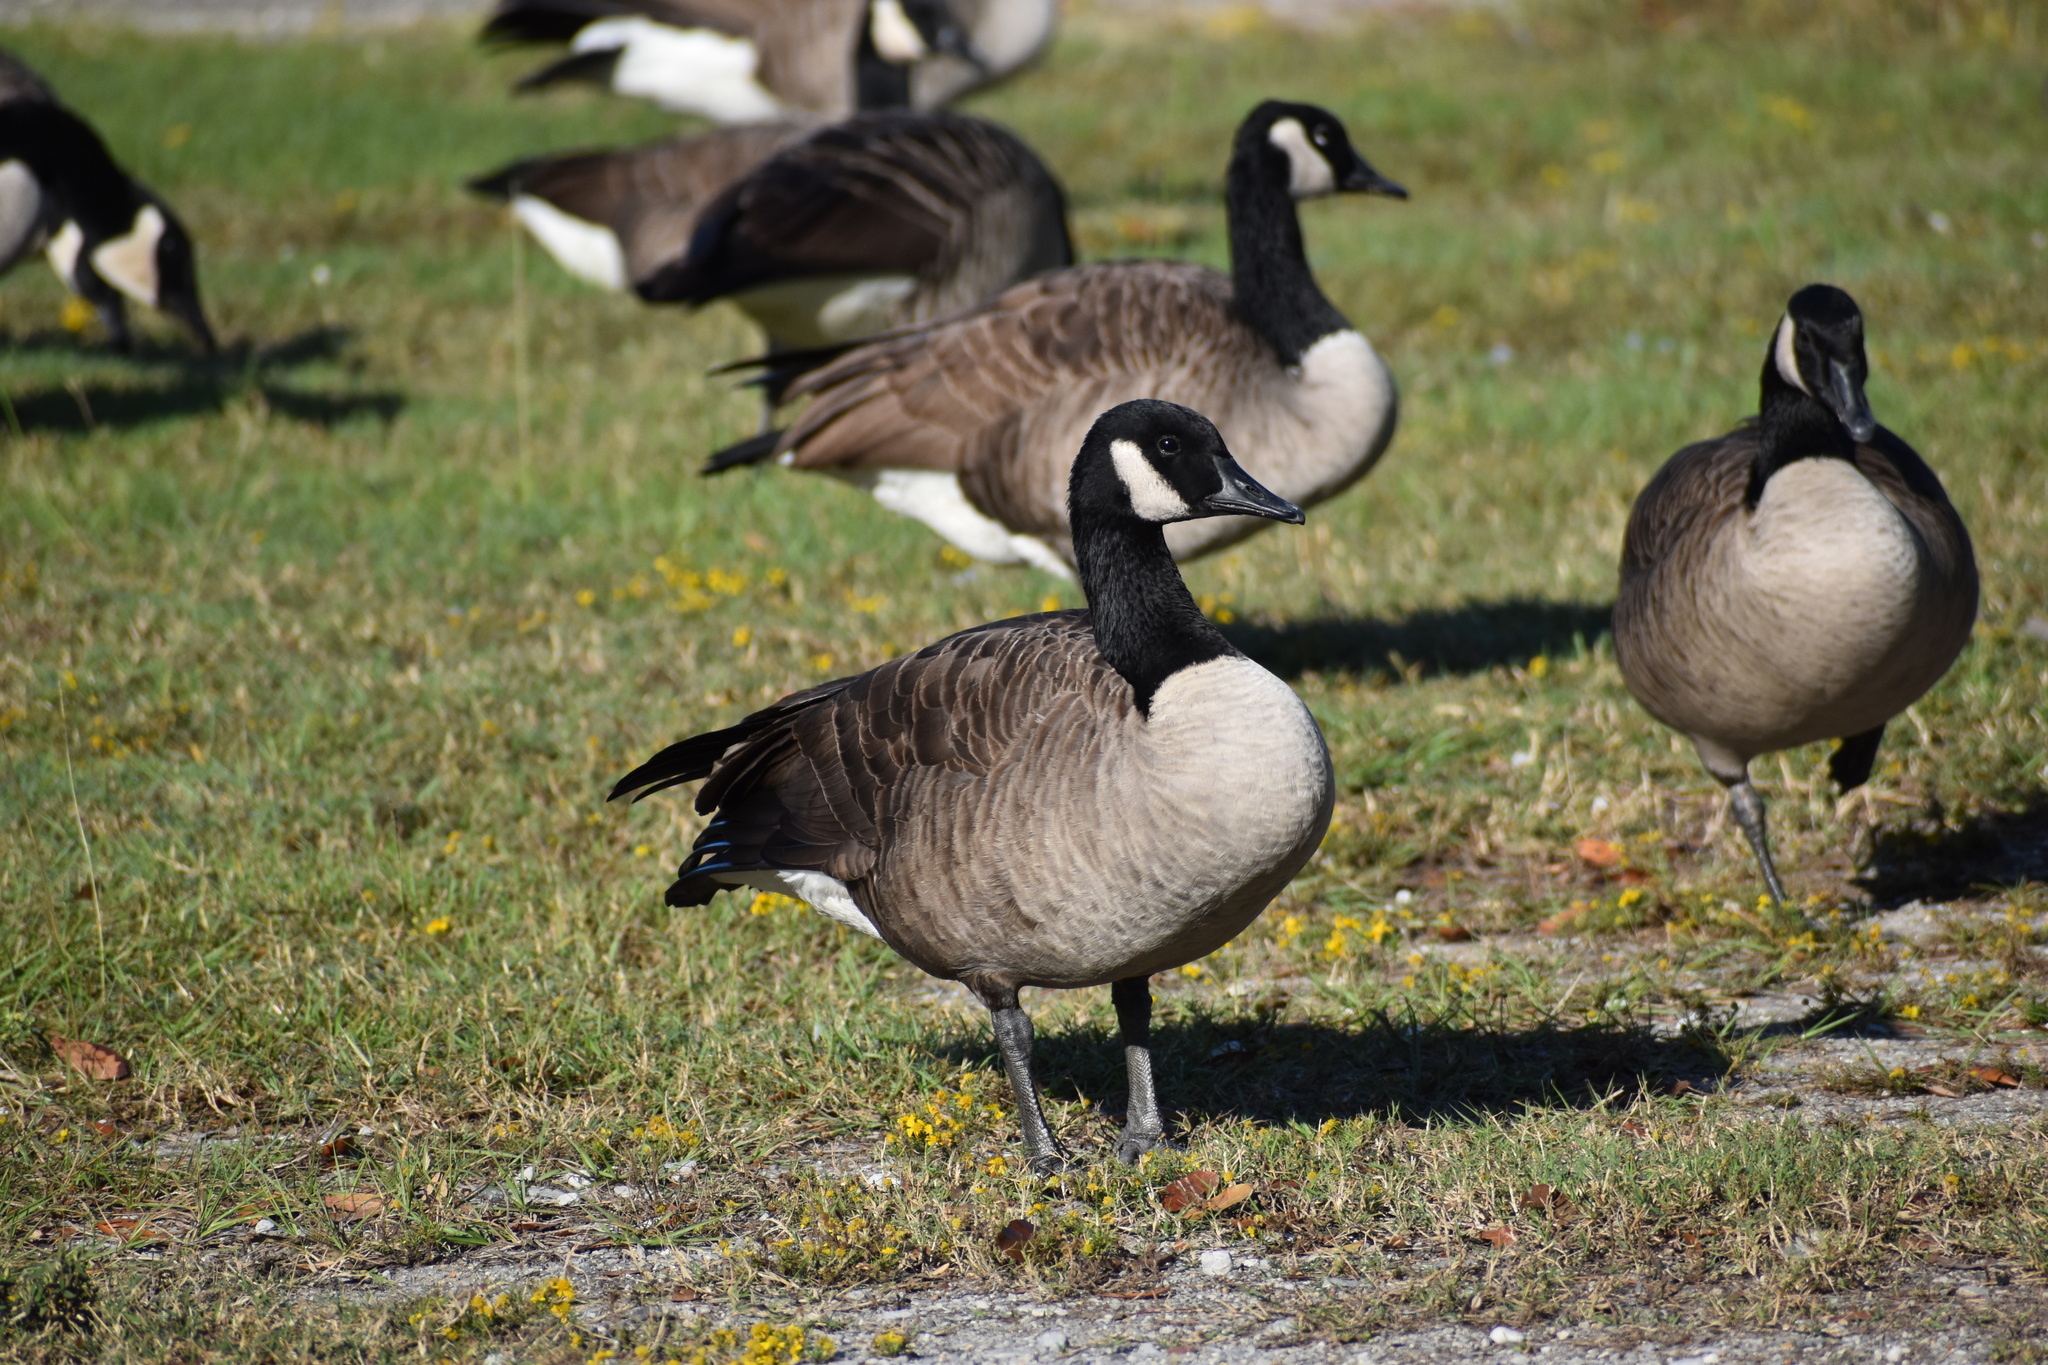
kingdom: Animalia
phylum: Chordata
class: Aves
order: Anseriformes
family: Anatidae
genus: Branta
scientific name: Branta canadensis
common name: Canada goose
